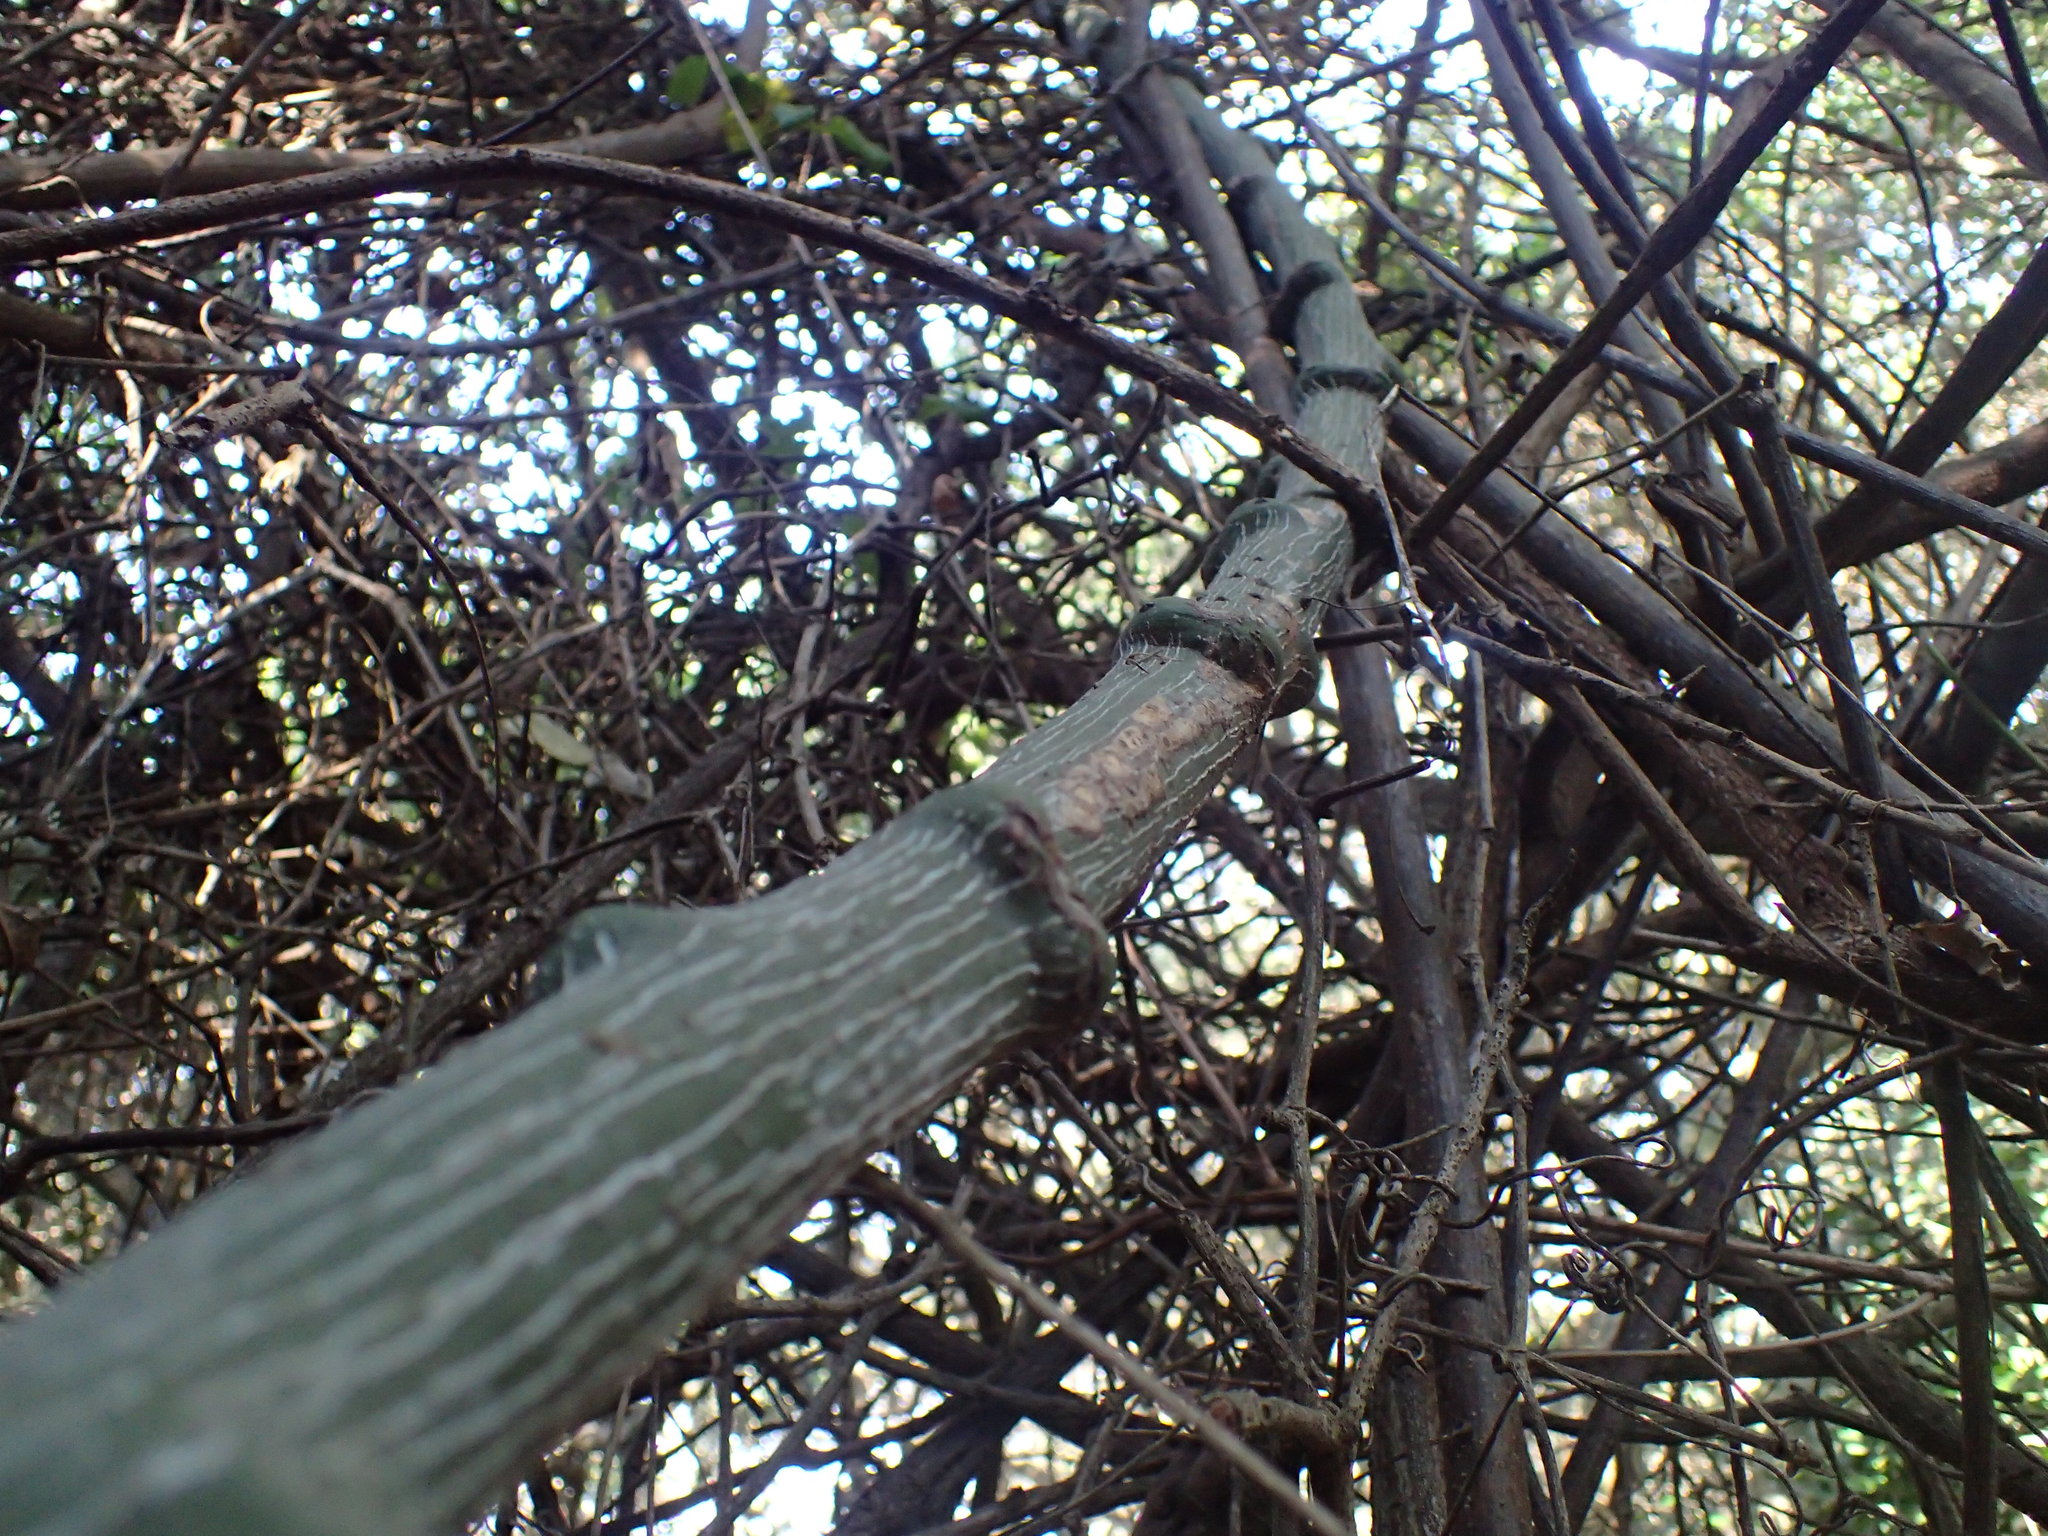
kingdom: Plantae
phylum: Tracheophyta
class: Magnoliopsida
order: Malpighiales
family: Passifloraceae
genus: Adenia
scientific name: Adenia gummifera
